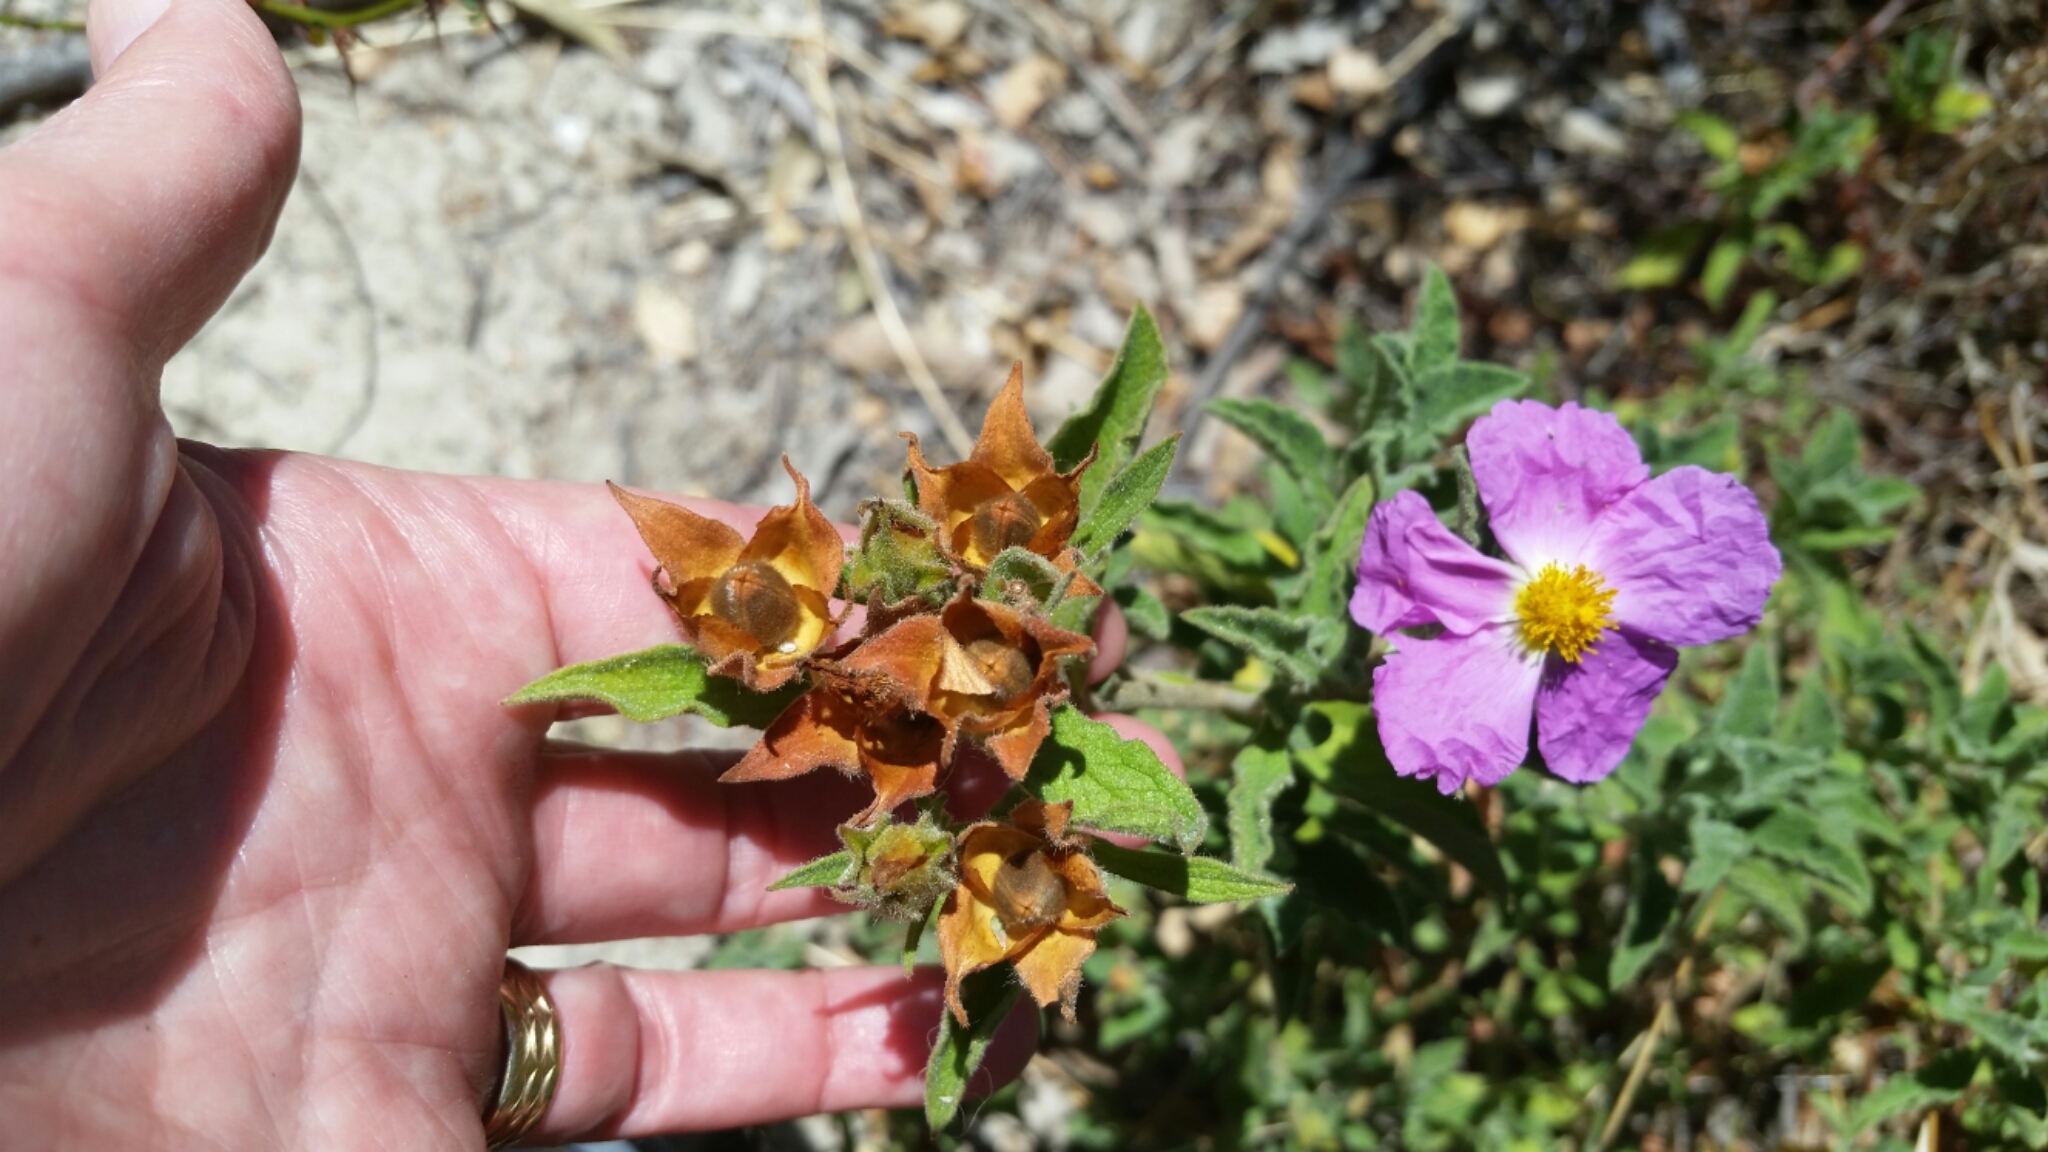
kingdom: Plantae
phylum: Tracheophyta
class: Magnoliopsida
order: Malvales
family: Cistaceae
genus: Cistus
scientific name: Cistus tauricus
